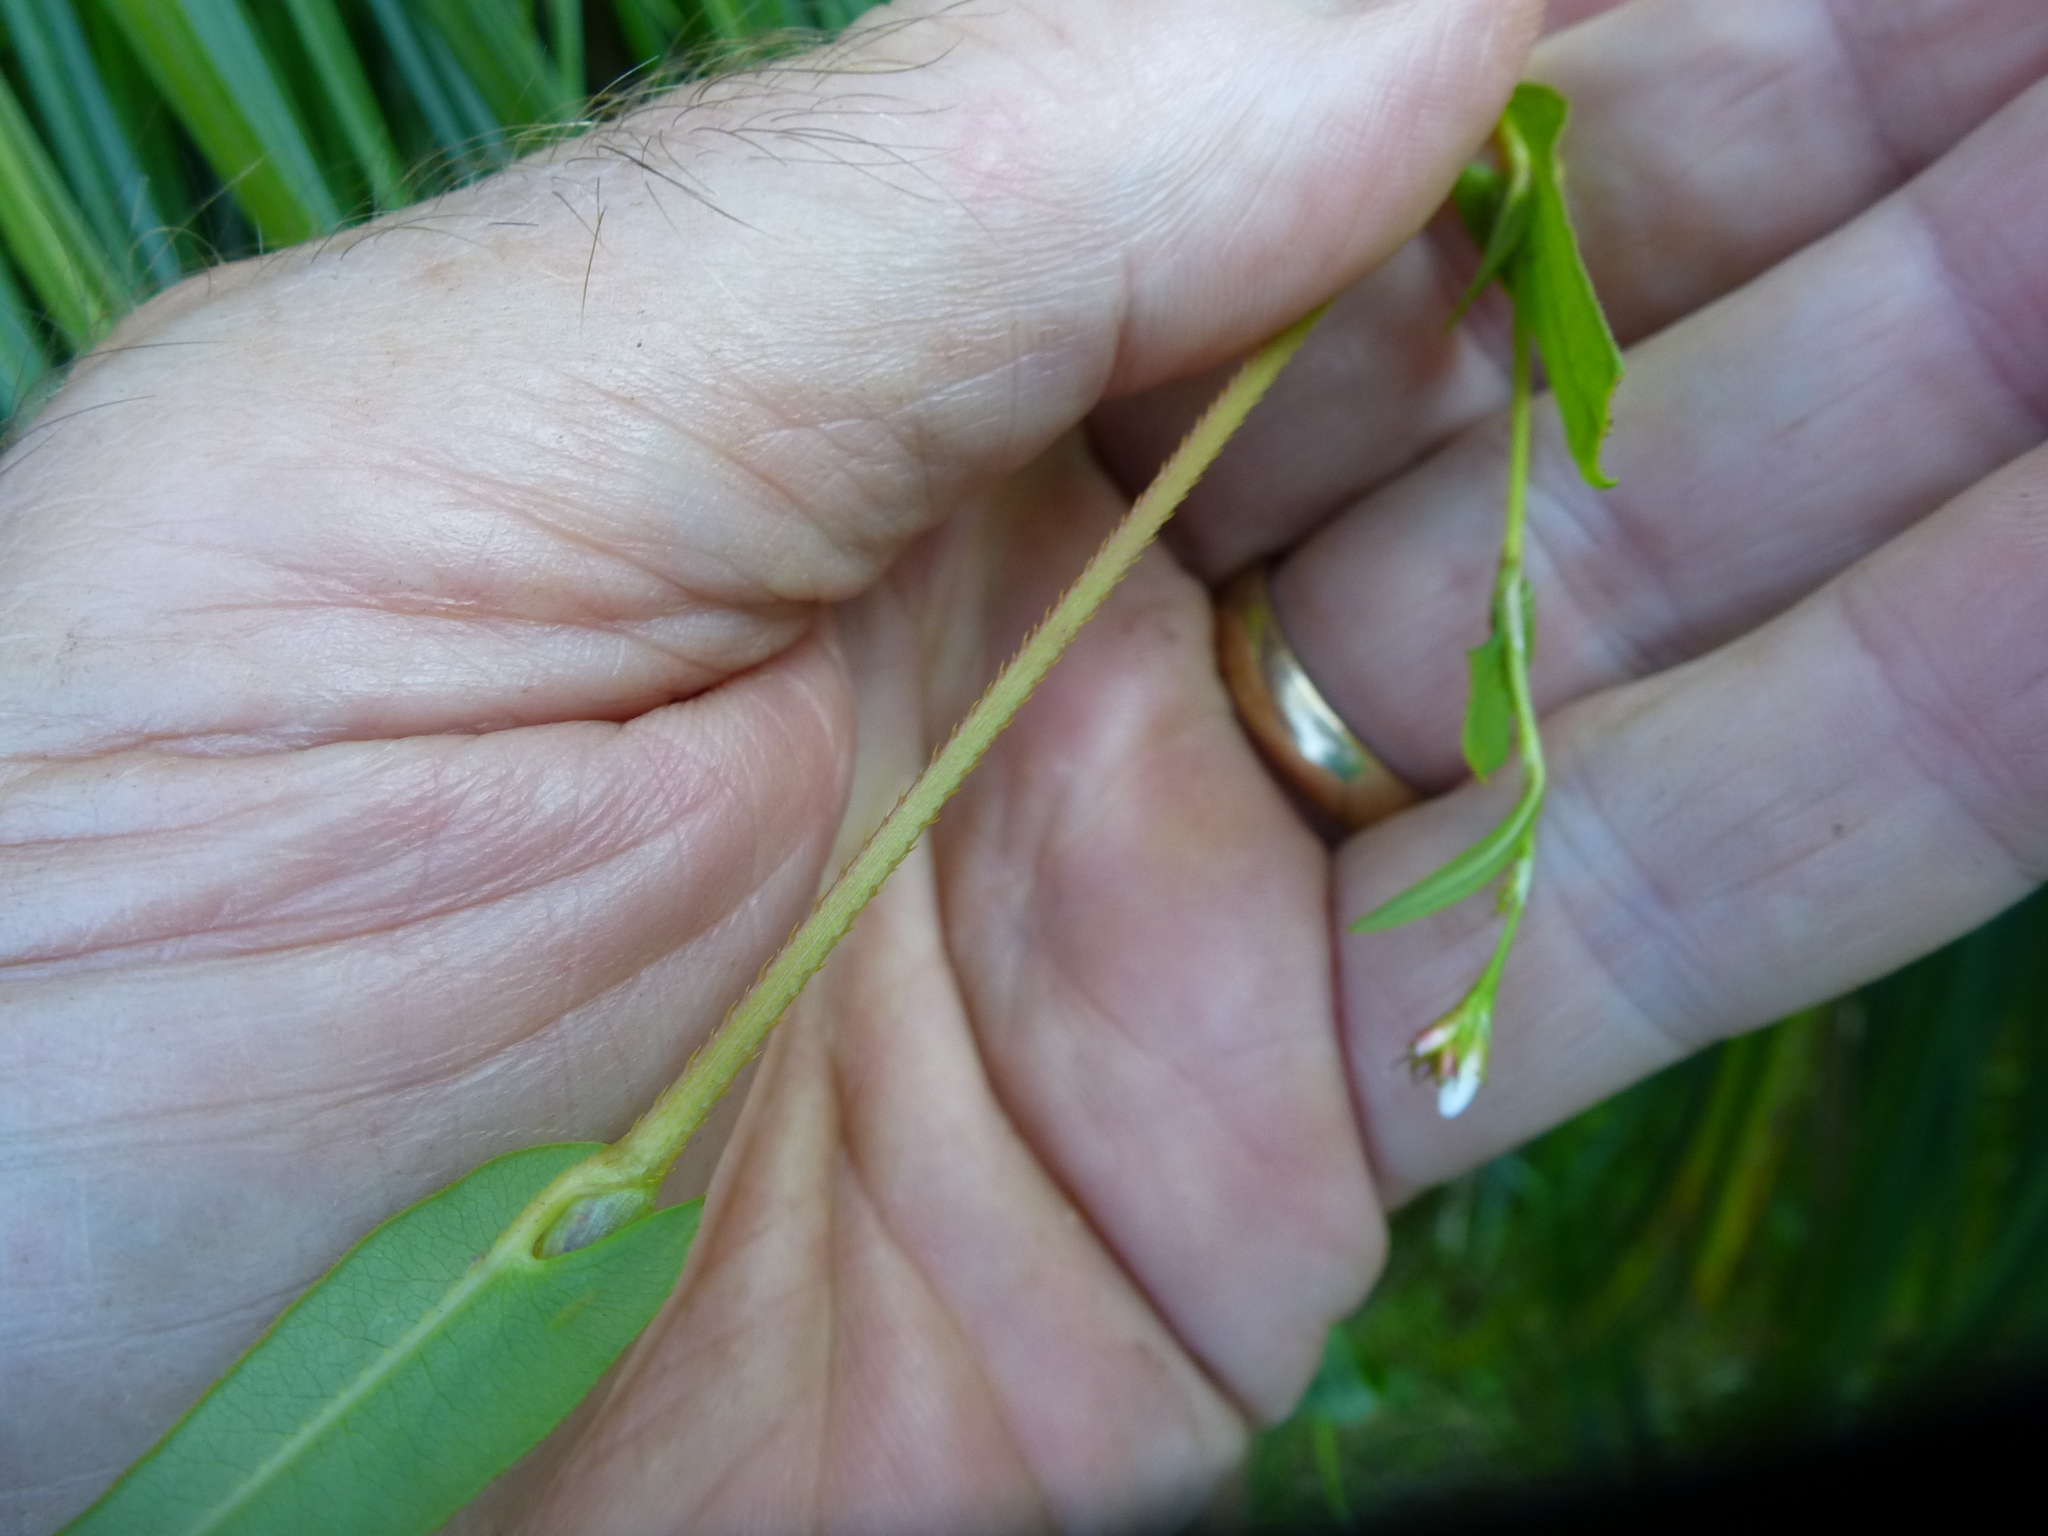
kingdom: Plantae
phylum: Tracheophyta
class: Magnoliopsida
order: Caryophyllales
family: Polygonaceae
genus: Persicaria
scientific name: Persicaria sagittata
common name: American tearthumb
